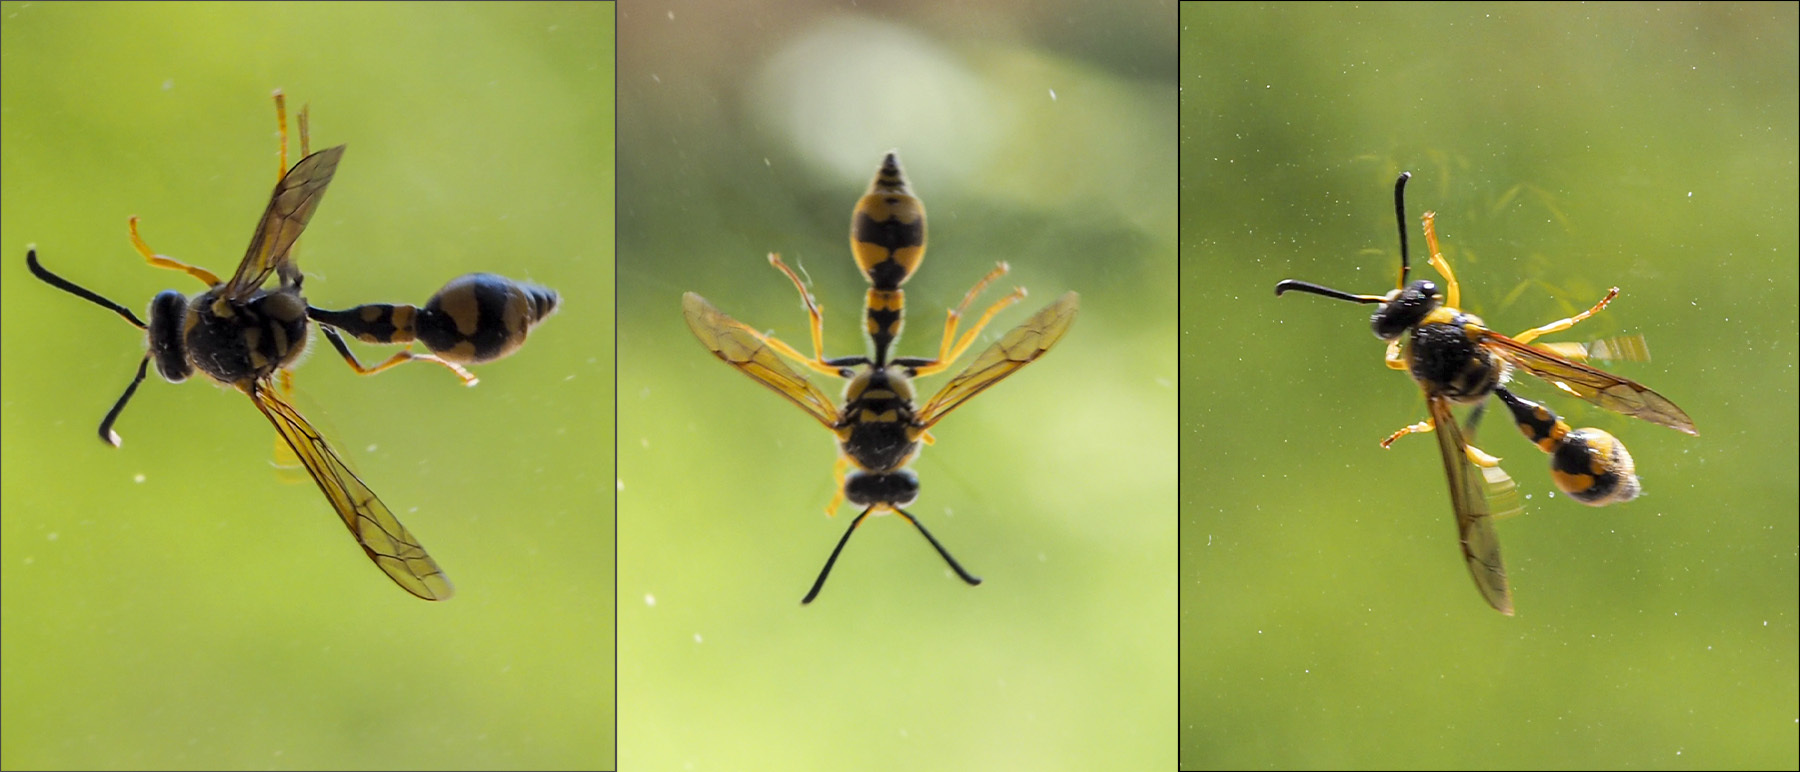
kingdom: Animalia
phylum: Arthropoda
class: Insecta
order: Hymenoptera
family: Vespidae
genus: Eumenes
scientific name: Eumenes mediterraneus
